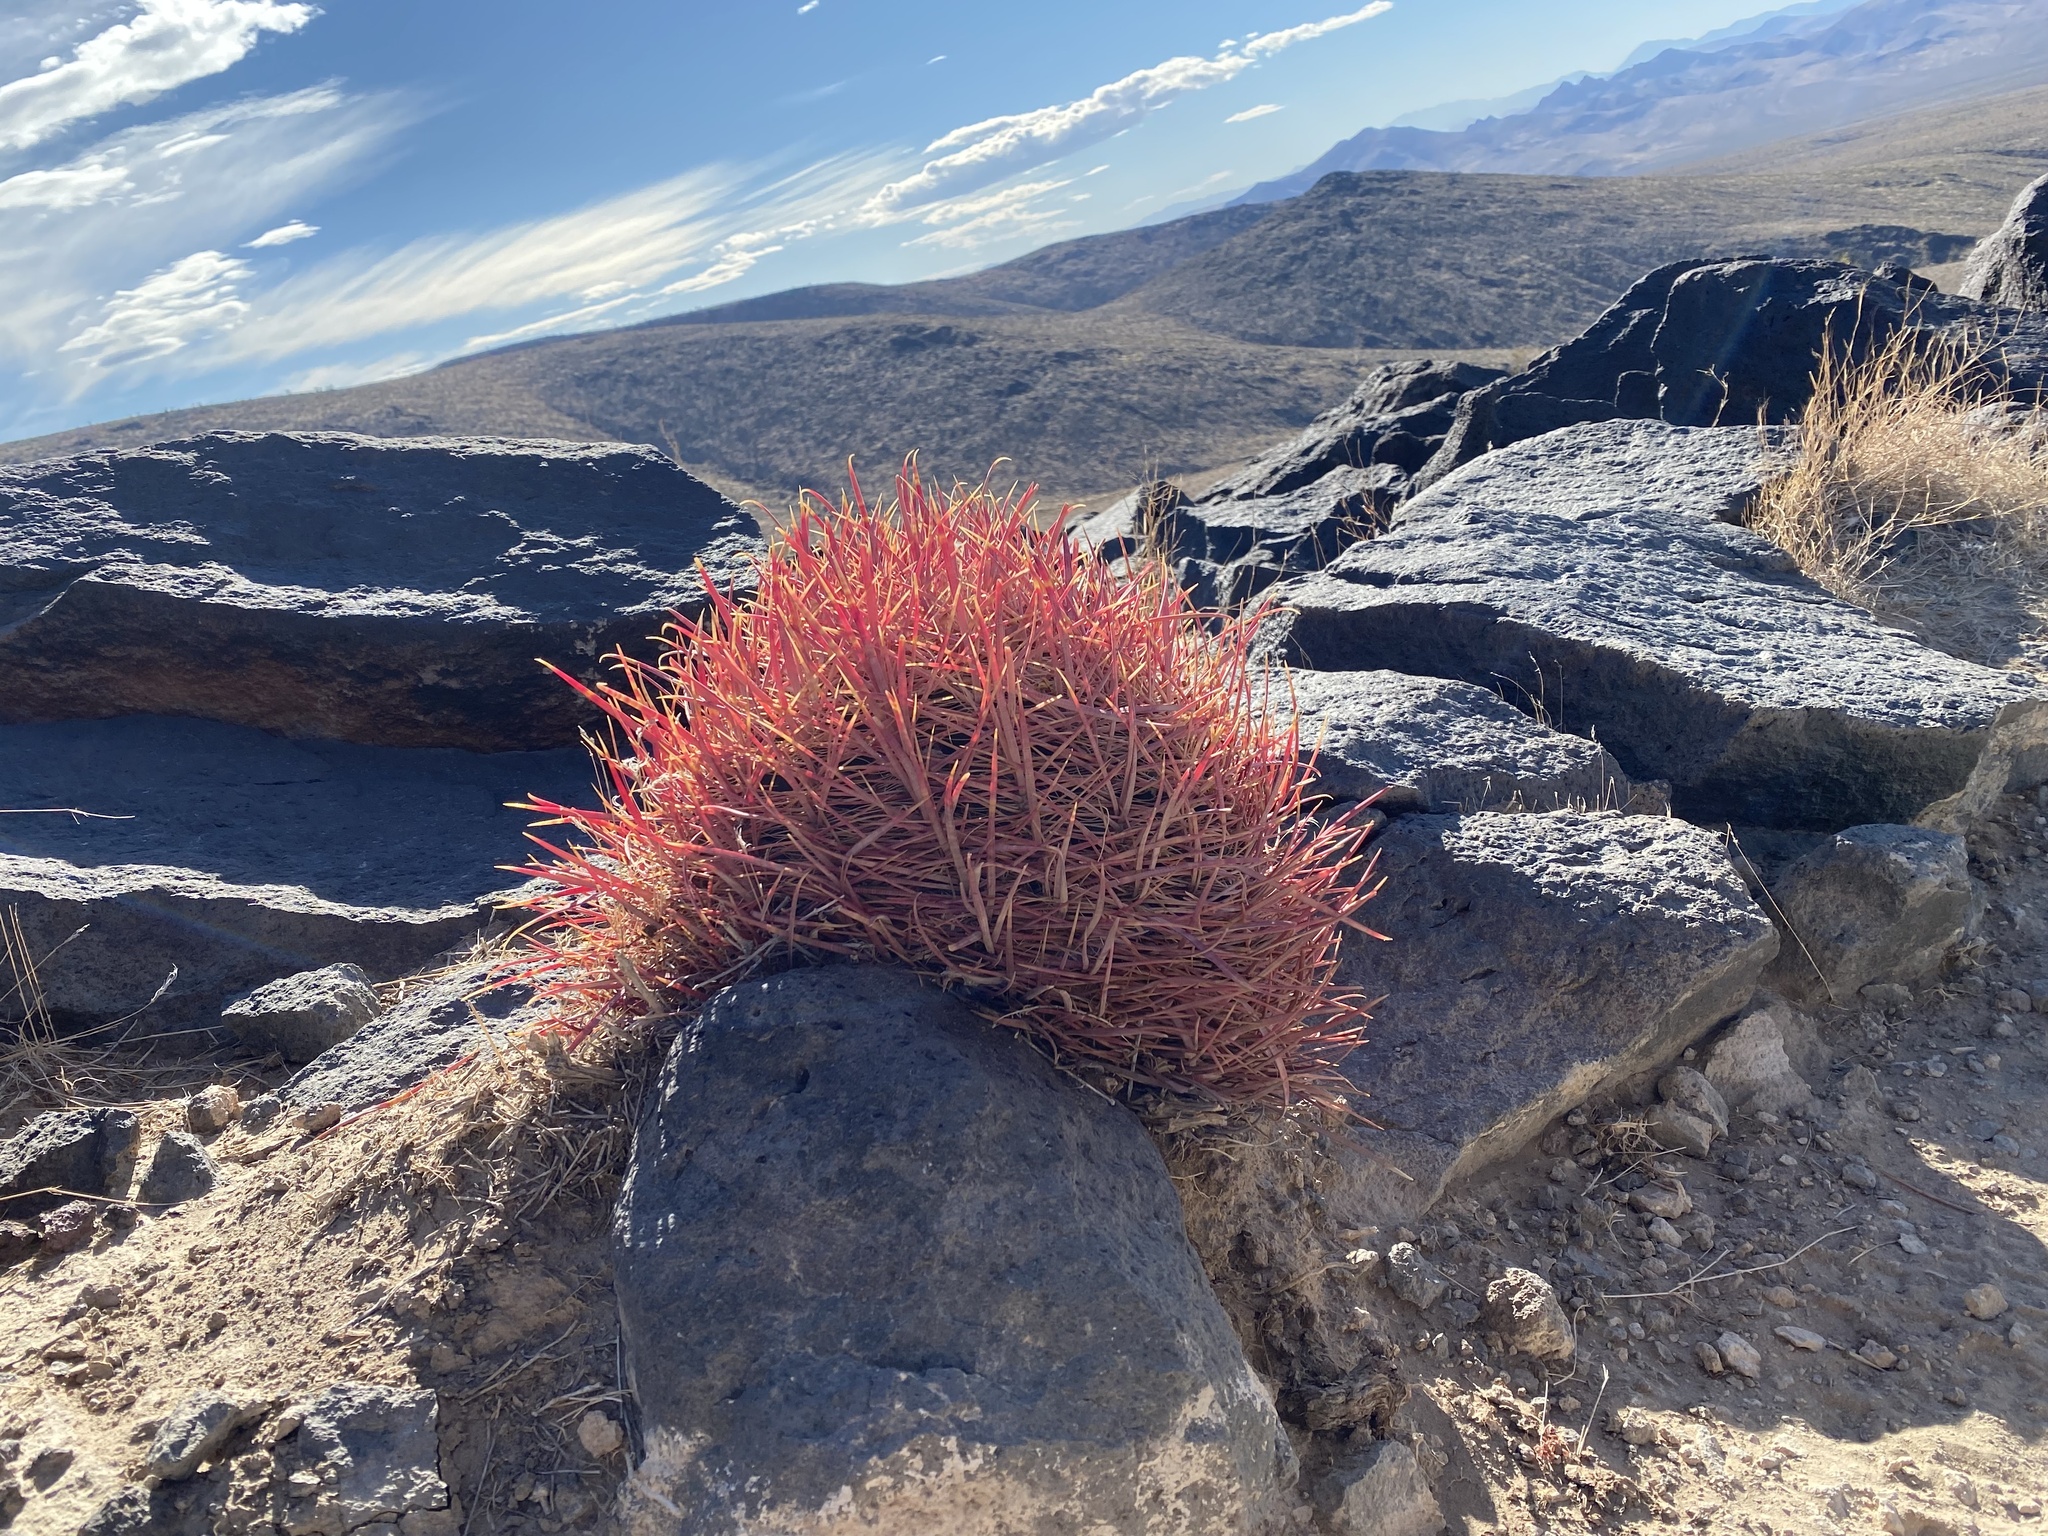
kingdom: Plantae
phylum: Tracheophyta
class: Magnoliopsida
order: Caryophyllales
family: Cactaceae
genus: Ferocactus
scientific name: Ferocactus cylindraceus
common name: California barrel cactus
